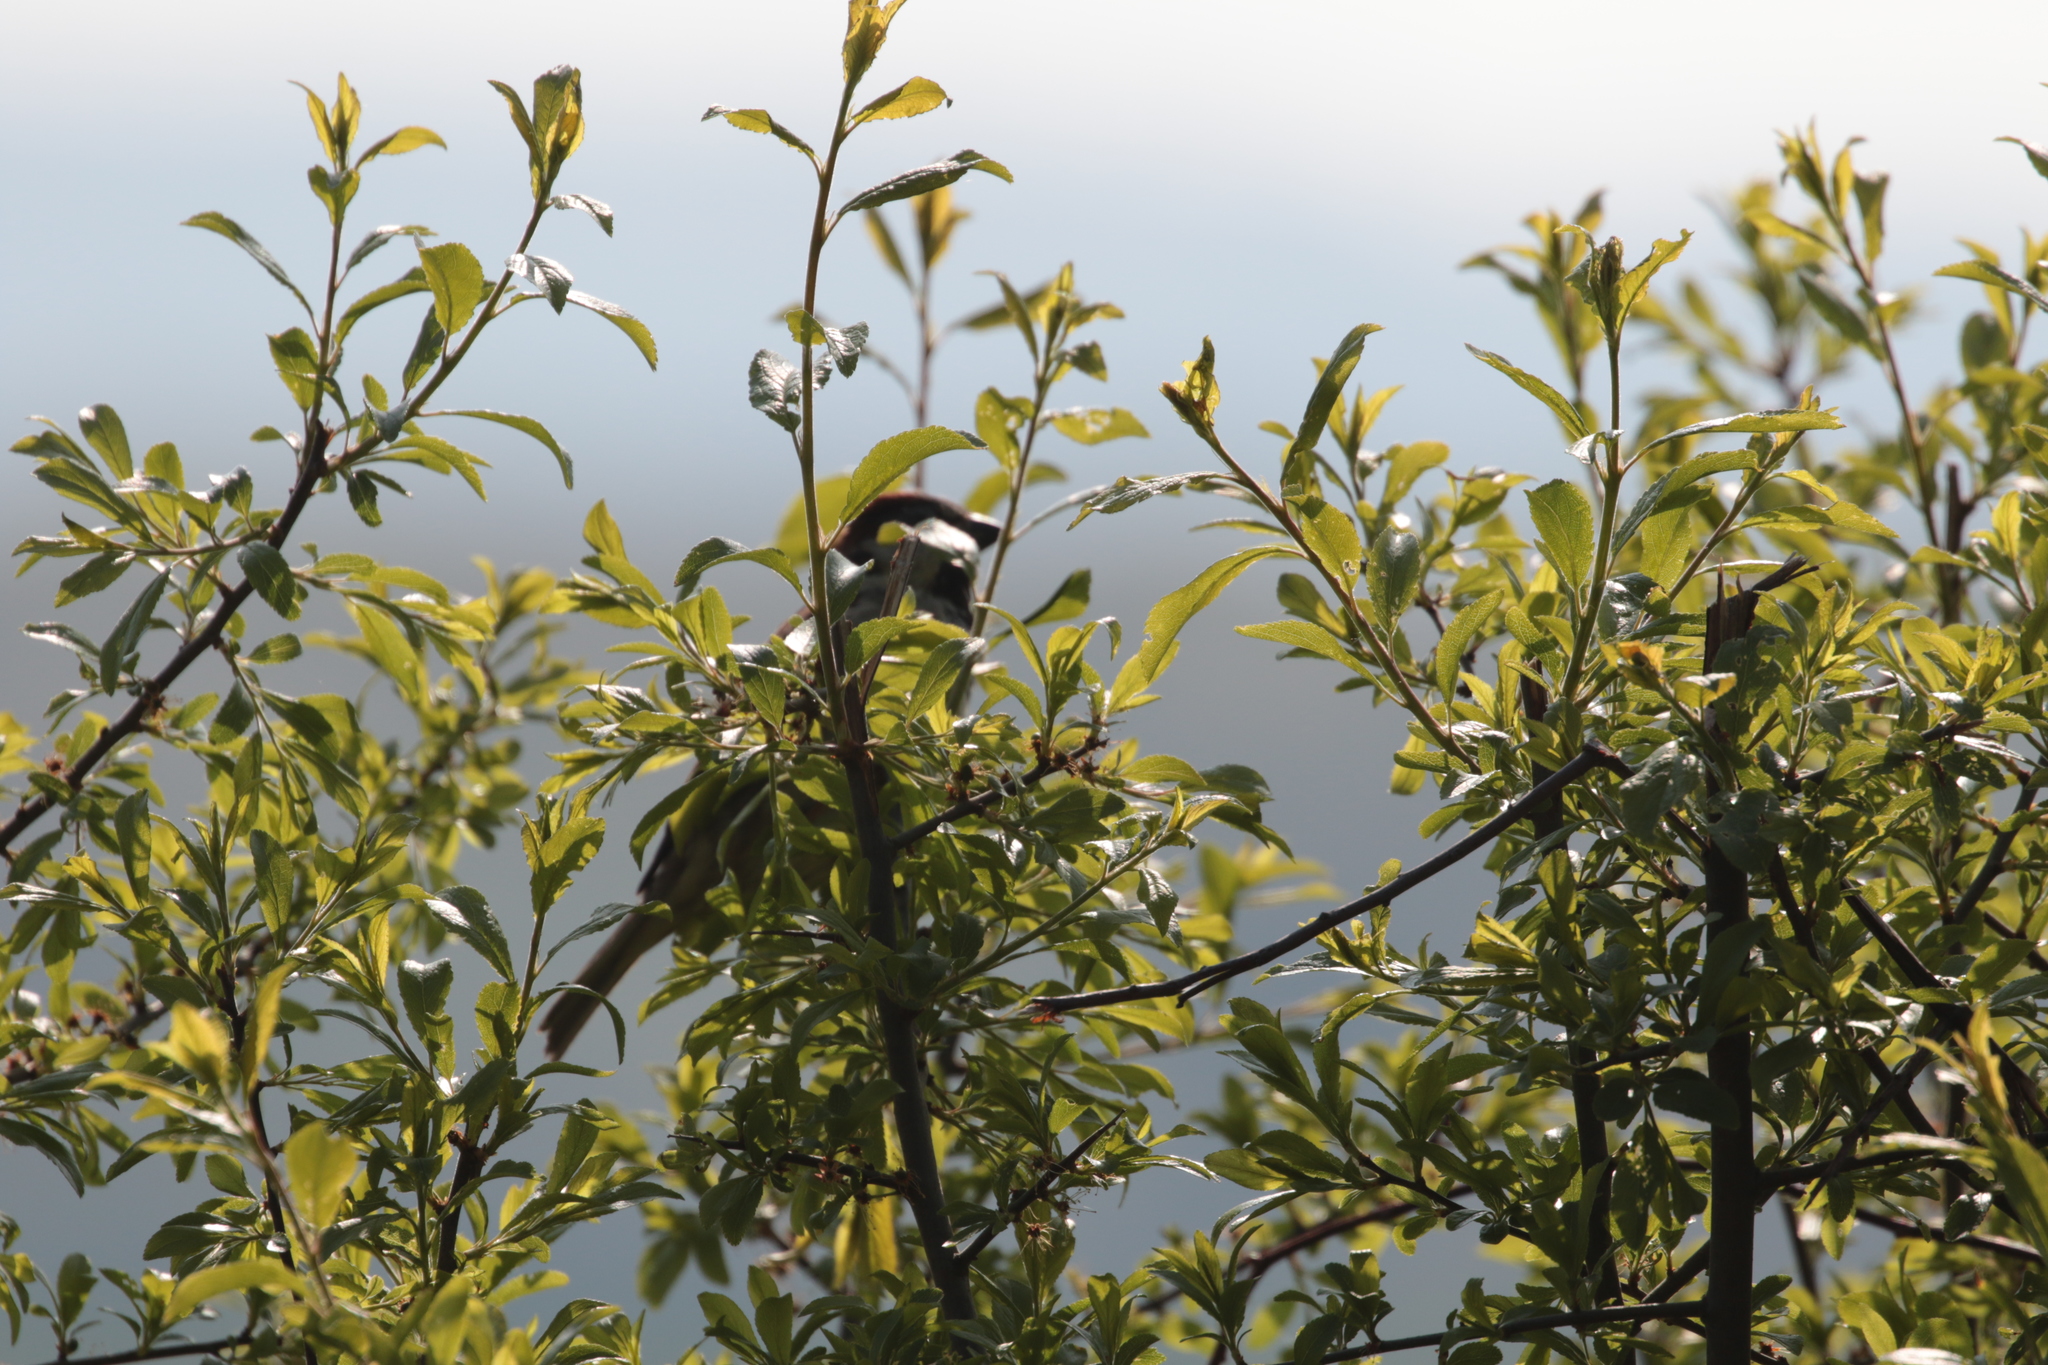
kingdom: Animalia
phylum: Chordata
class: Aves
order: Passeriformes
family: Passeridae
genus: Passer
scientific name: Passer domesticus
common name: House sparrow
